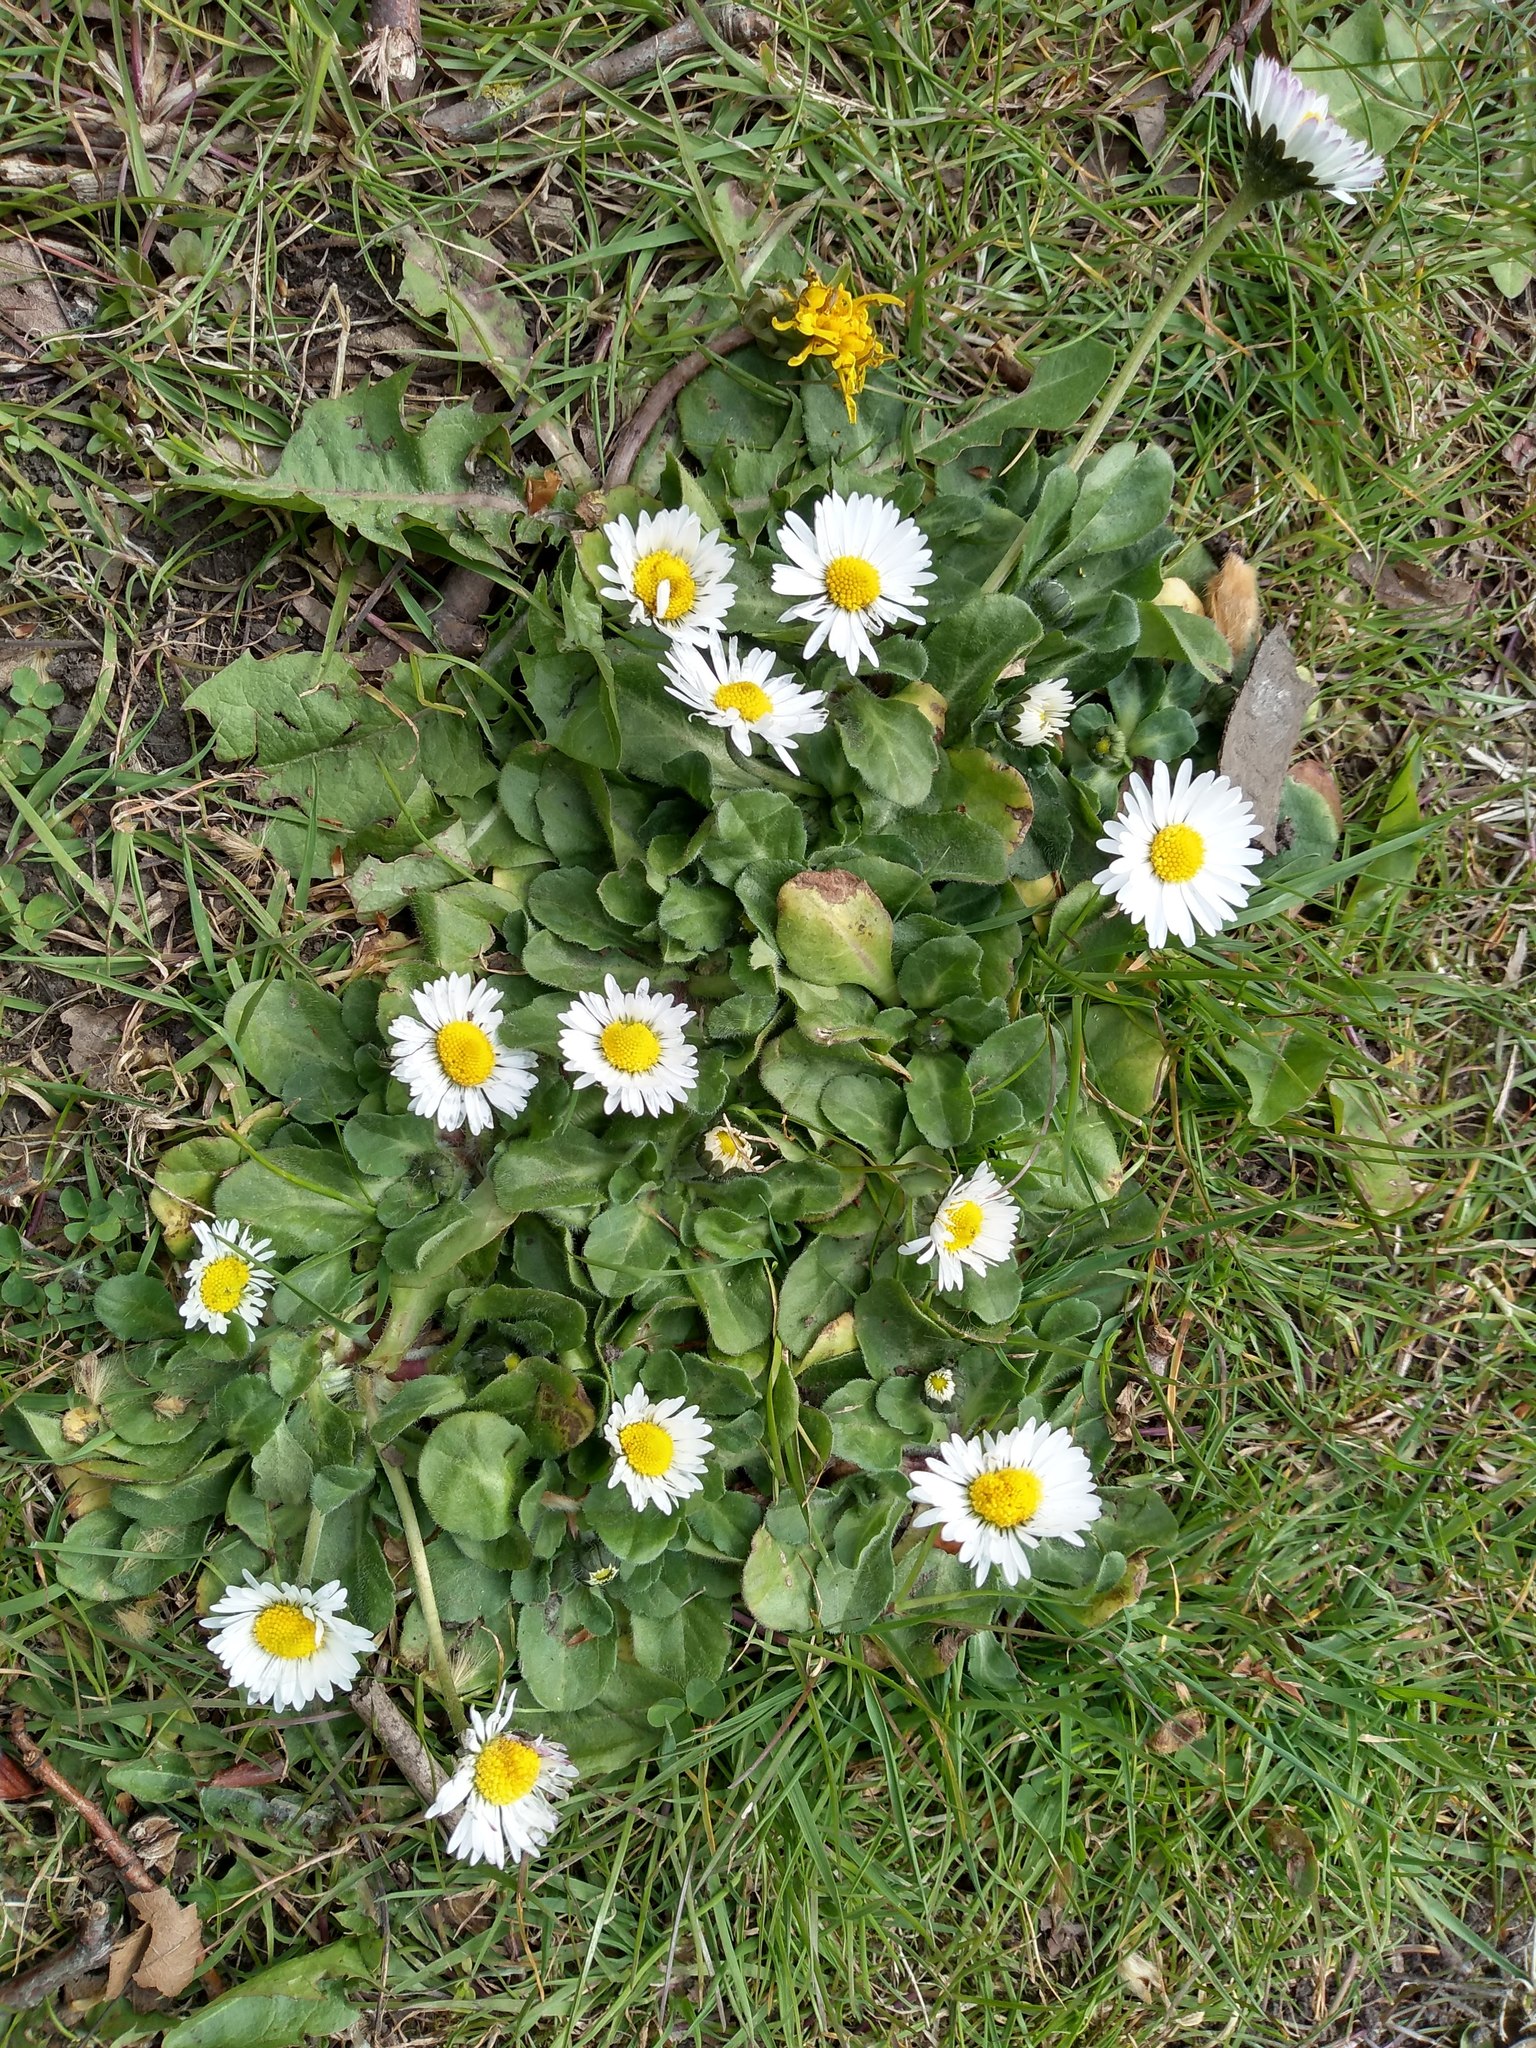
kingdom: Plantae
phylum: Tracheophyta
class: Magnoliopsida
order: Asterales
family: Asteraceae
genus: Bellis
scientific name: Bellis perennis
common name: Lawndaisy
